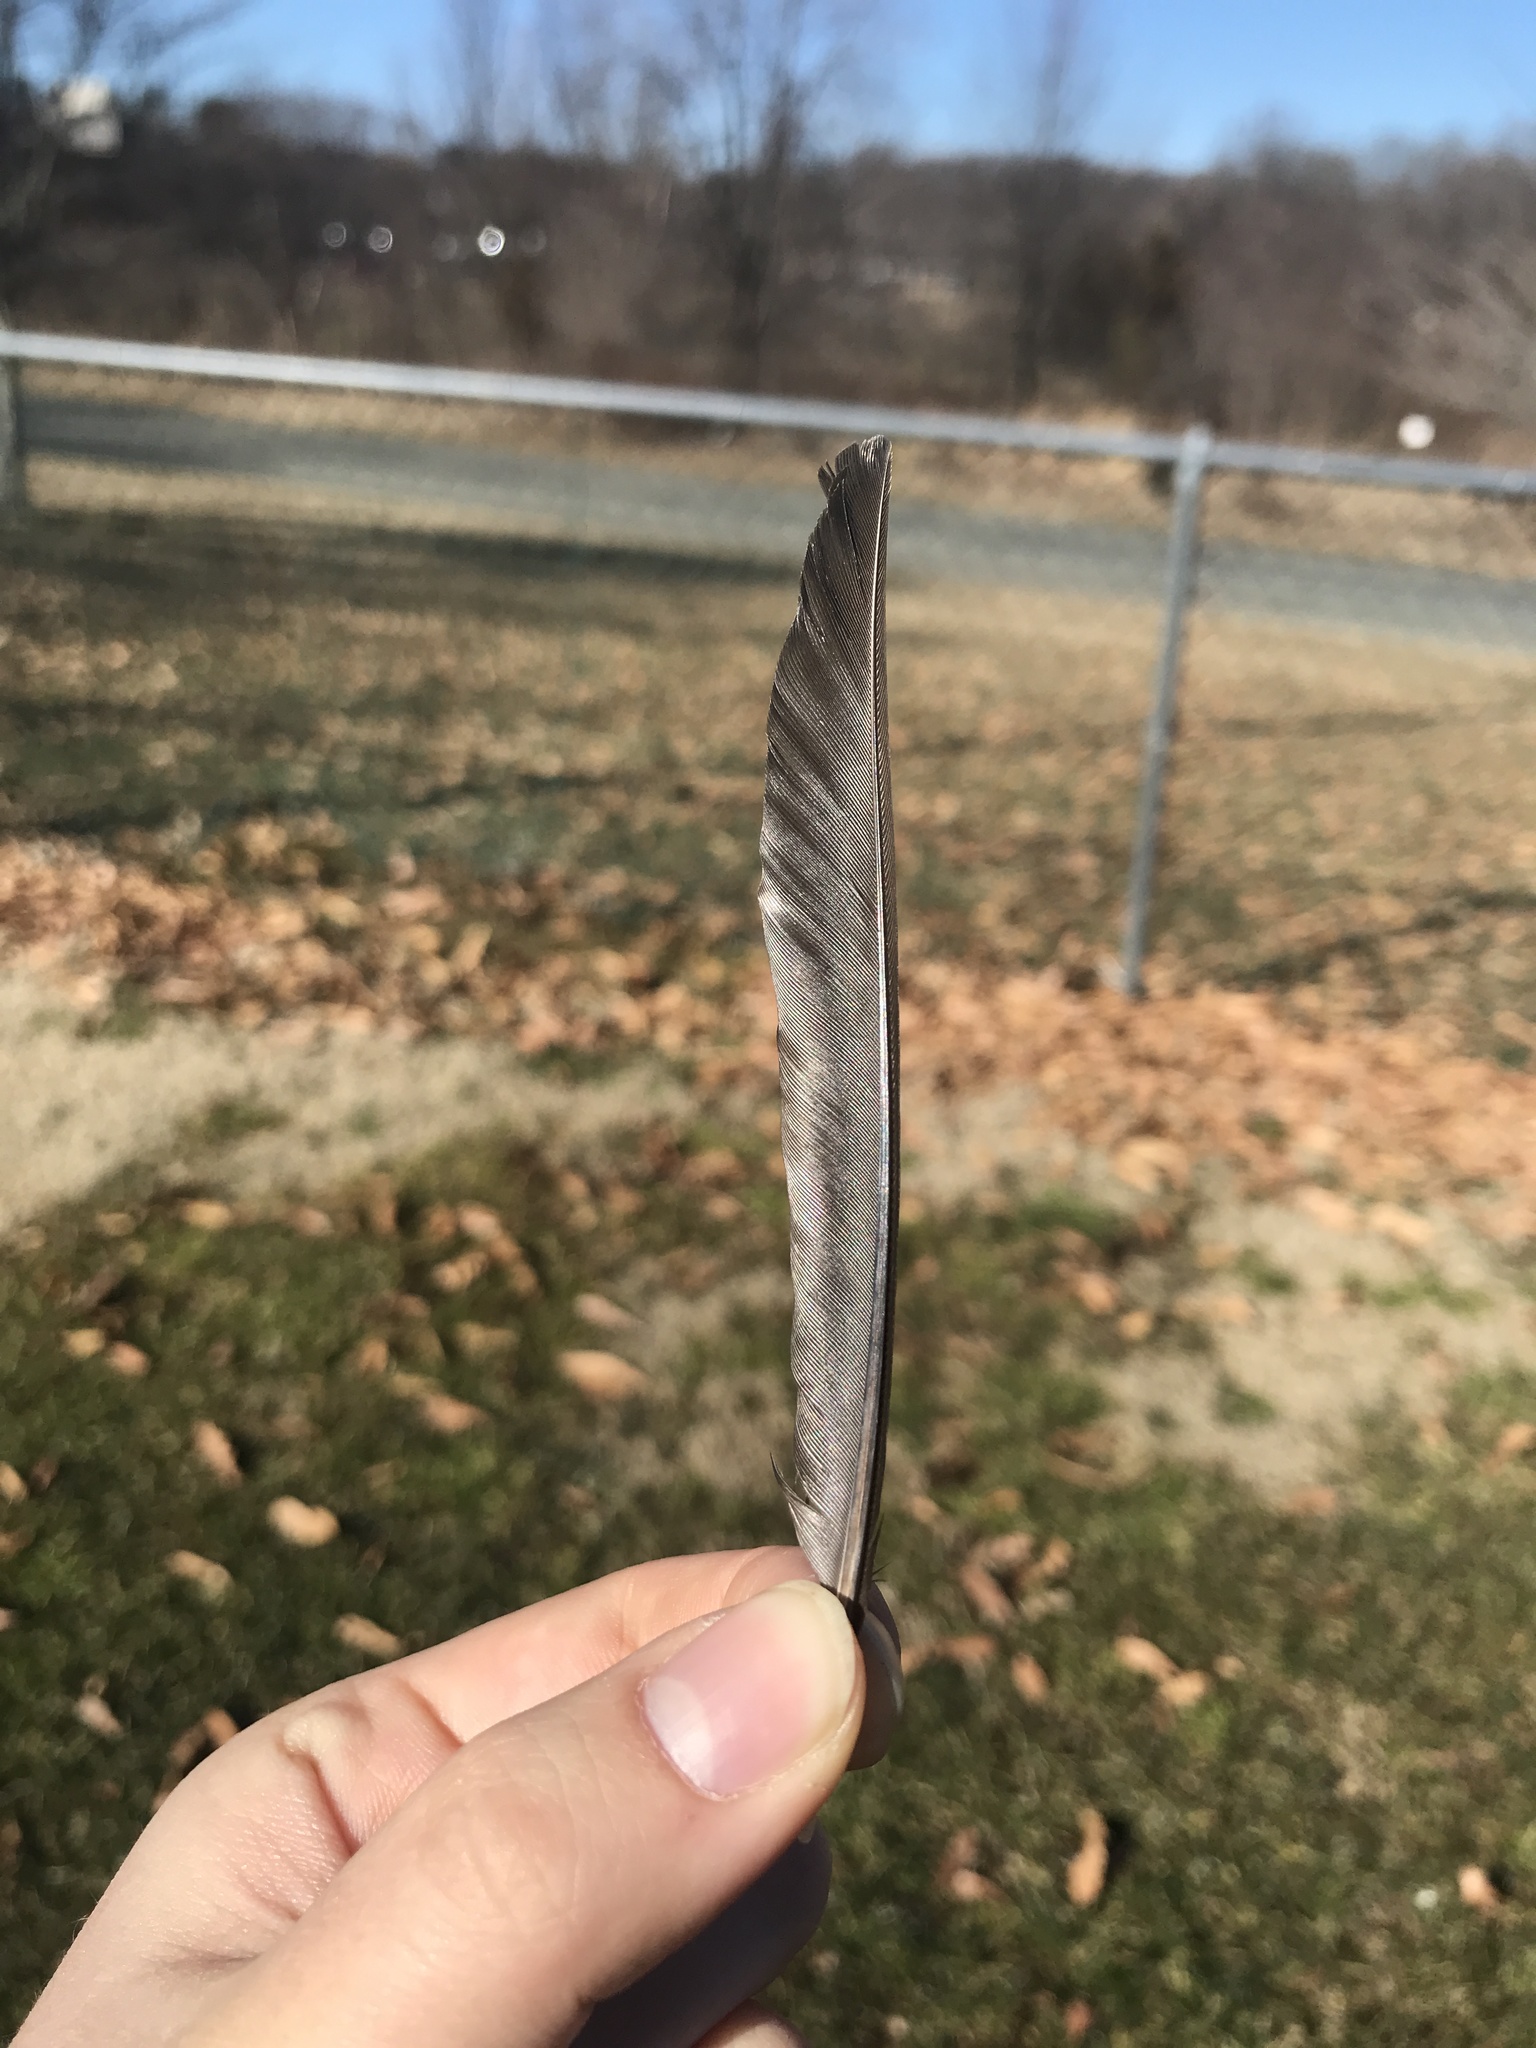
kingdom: Animalia
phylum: Chordata
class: Aves
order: Passeriformes
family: Icteridae
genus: Quiscalus
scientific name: Quiscalus quiscula
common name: Common grackle
